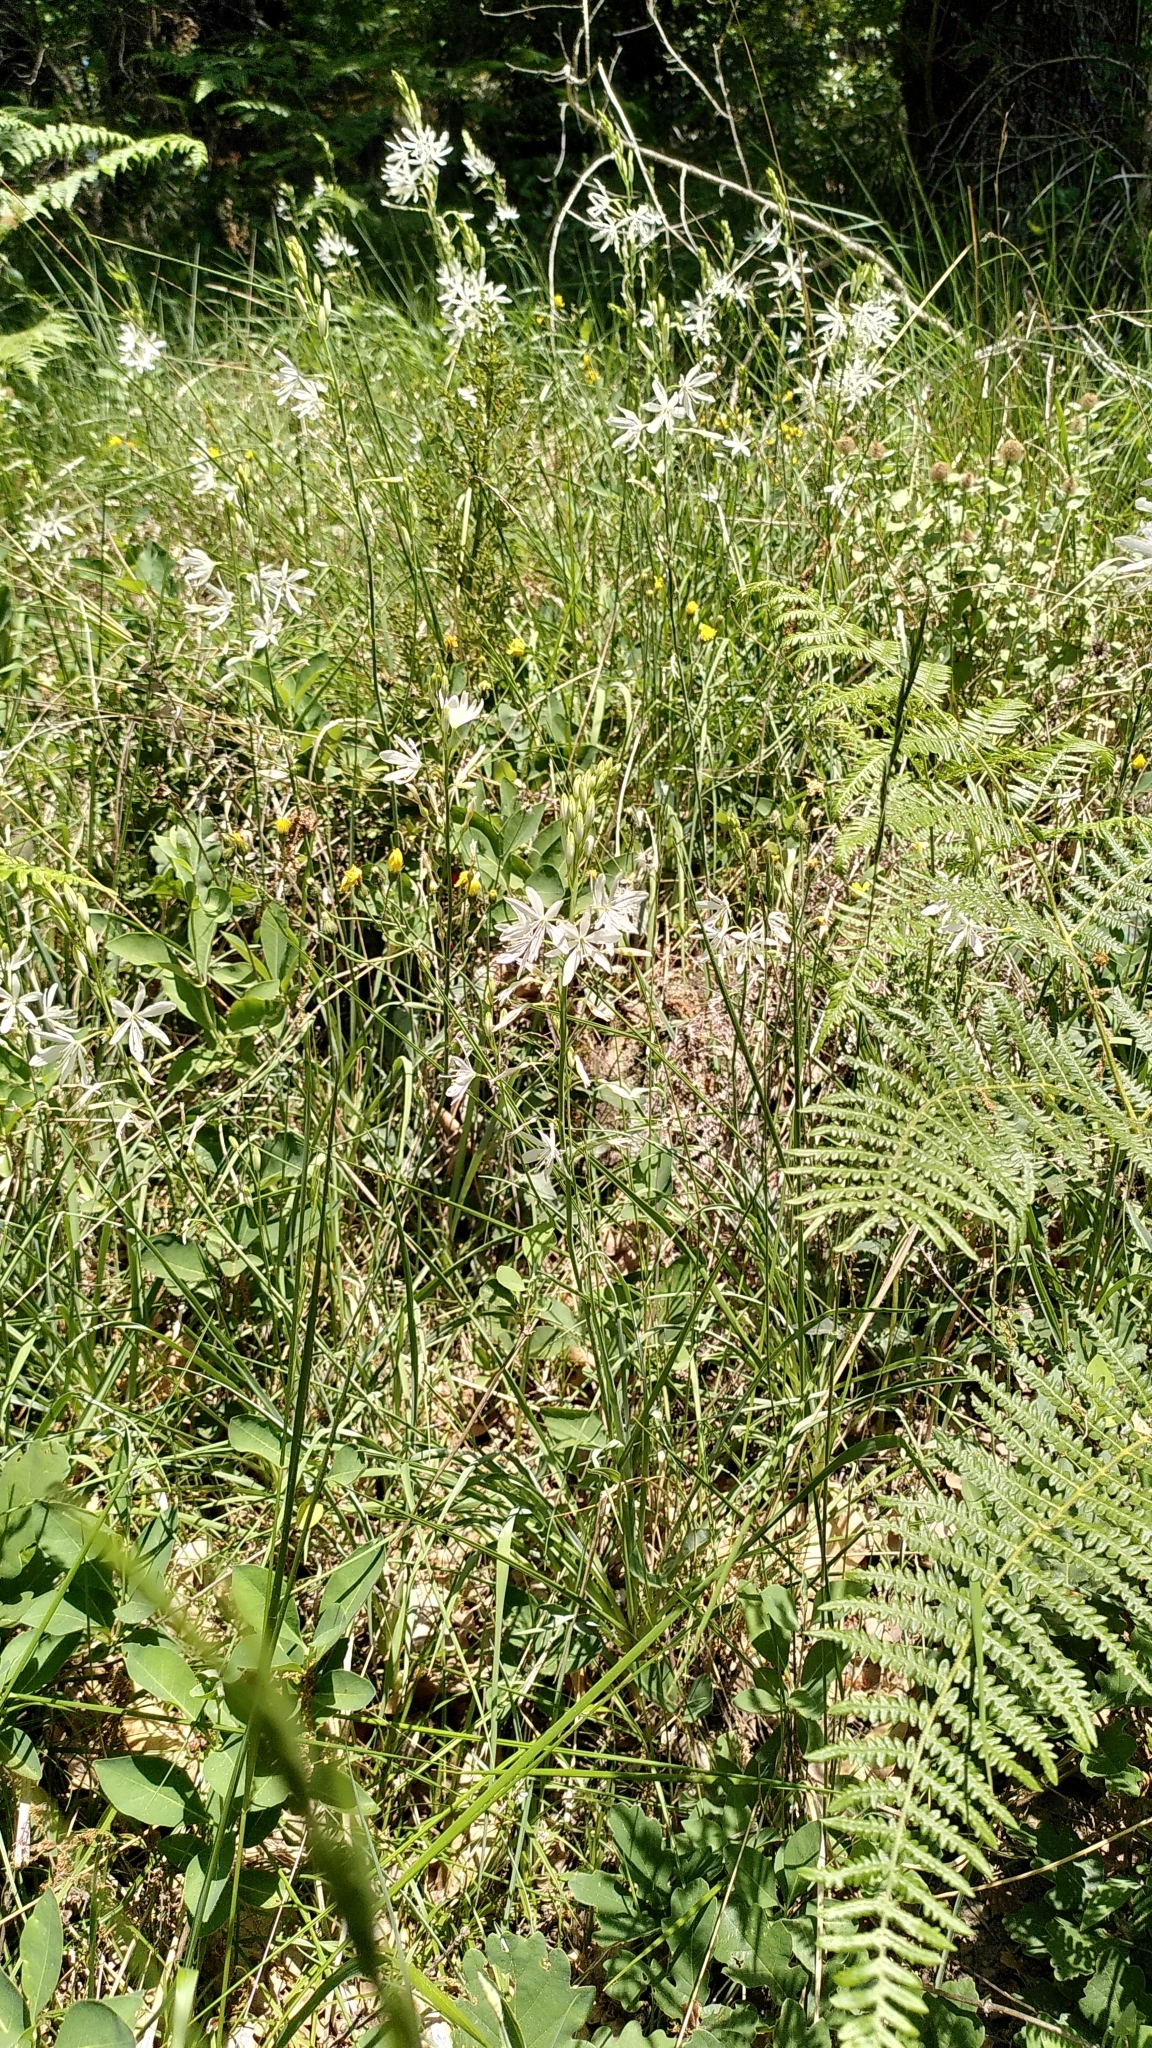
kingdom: Plantae
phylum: Tracheophyta
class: Liliopsida
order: Asparagales
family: Asparagaceae
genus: Anthericum
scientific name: Anthericum liliago
